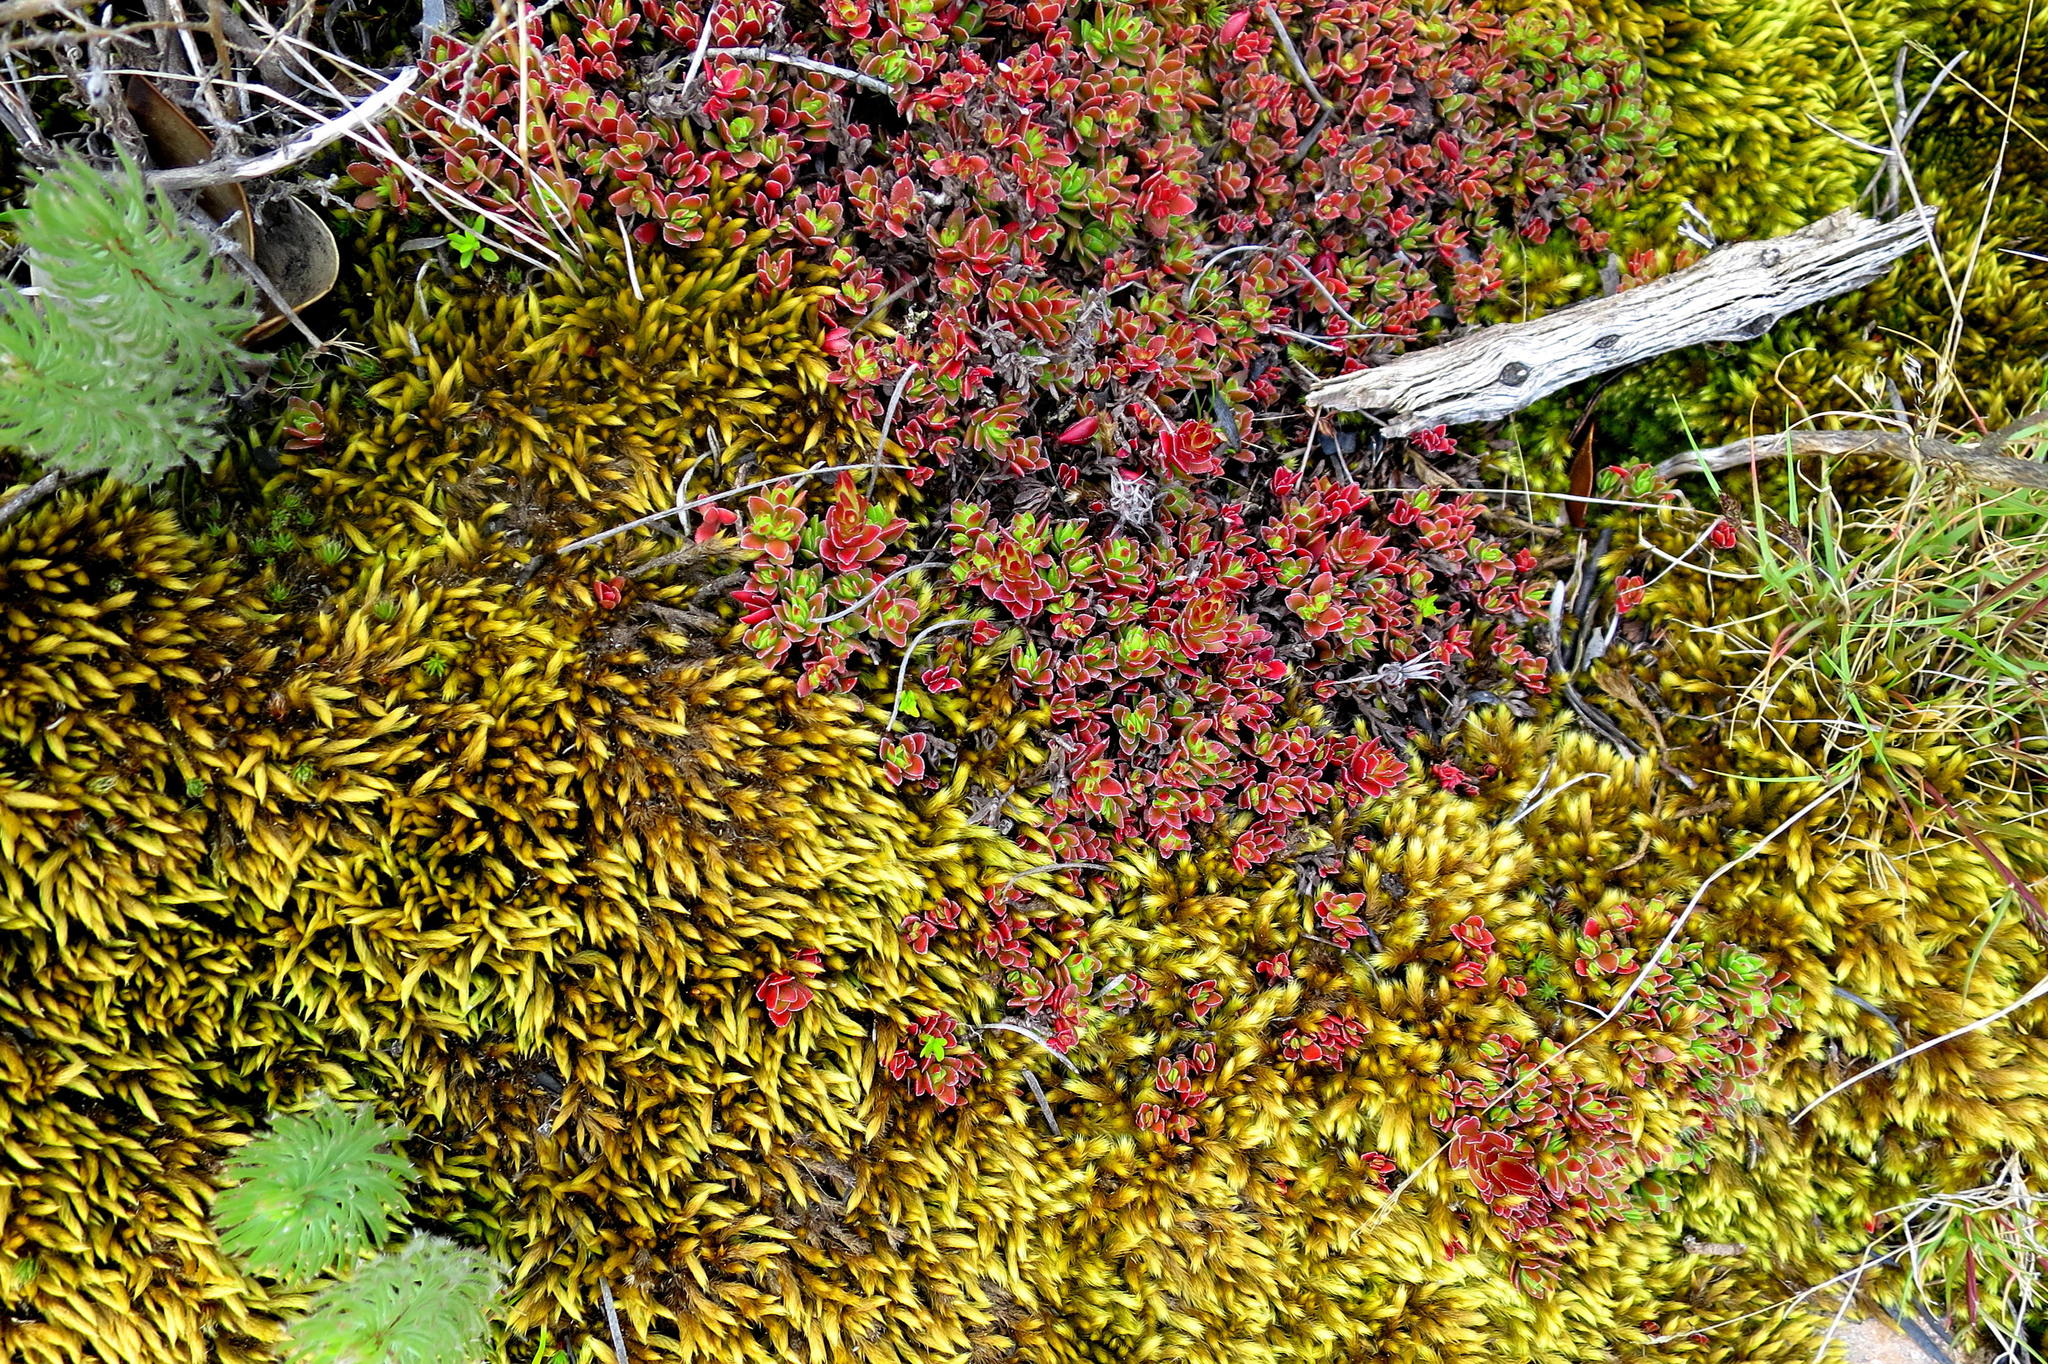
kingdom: Plantae
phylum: Tracheophyta
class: Magnoliopsida
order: Saxifragales
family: Crassulaceae
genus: Crassula
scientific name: Crassula obtusa
